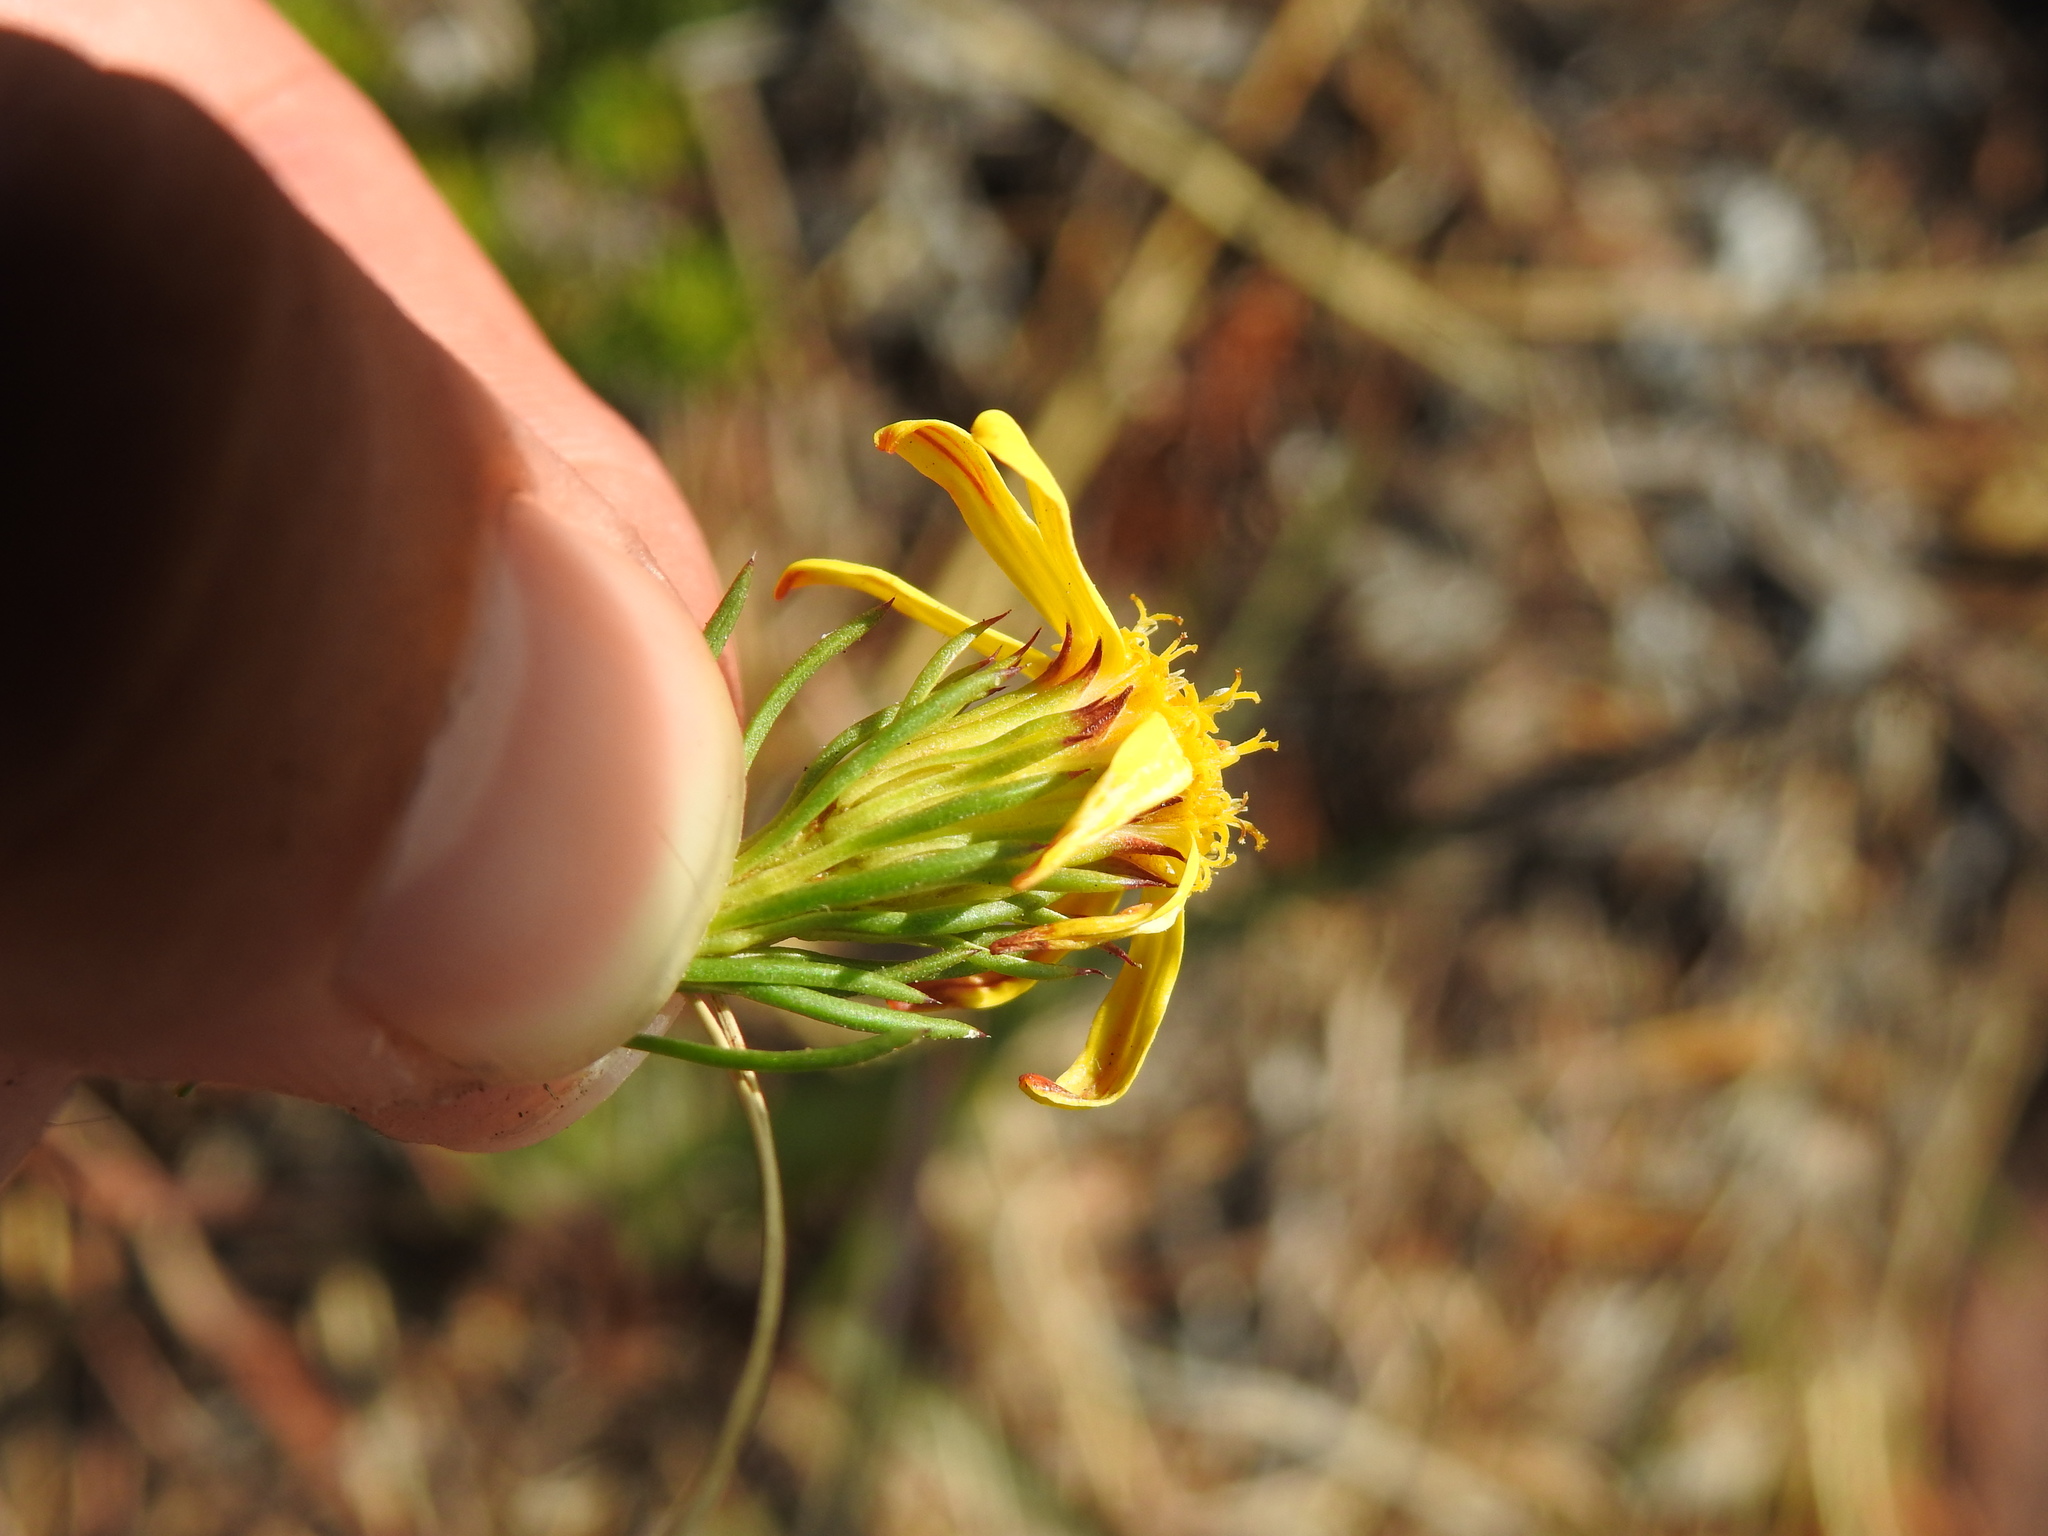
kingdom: Plantae
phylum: Tracheophyta
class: Magnoliopsida
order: Asterales
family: Asteraceae
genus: Senecio
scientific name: Senecio pinifolius
